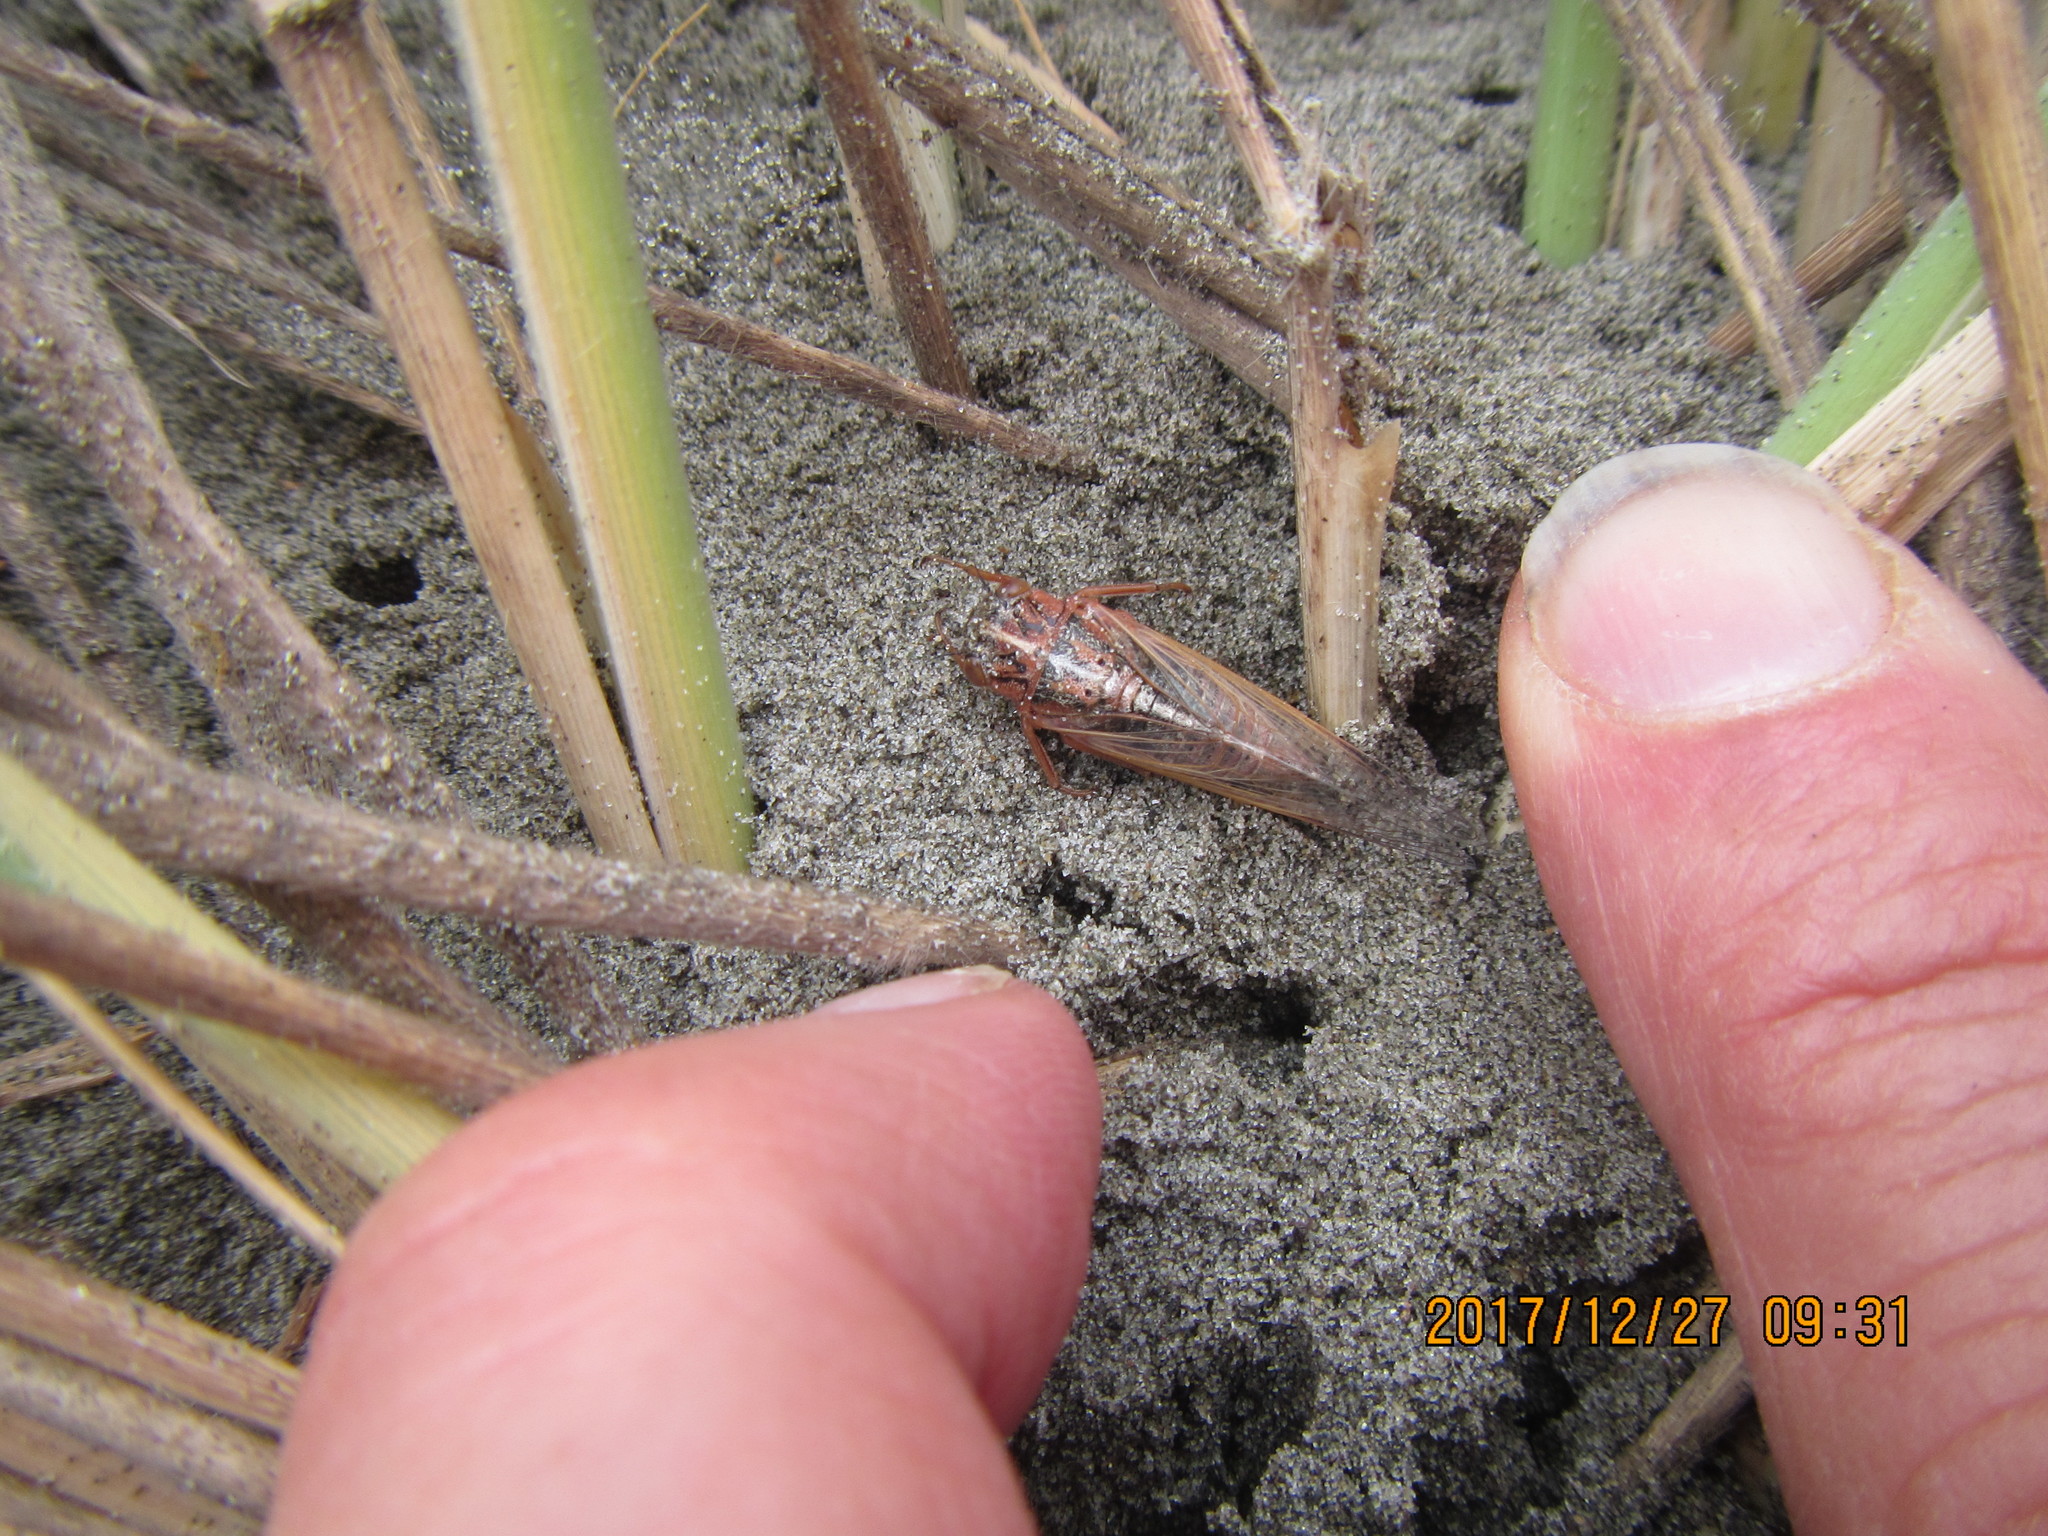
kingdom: Animalia
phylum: Arthropoda
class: Insecta
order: Hemiptera
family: Cicadidae
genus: Rhodopsalta
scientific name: Rhodopsalta leptomera
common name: Sand dune redtail cicada
